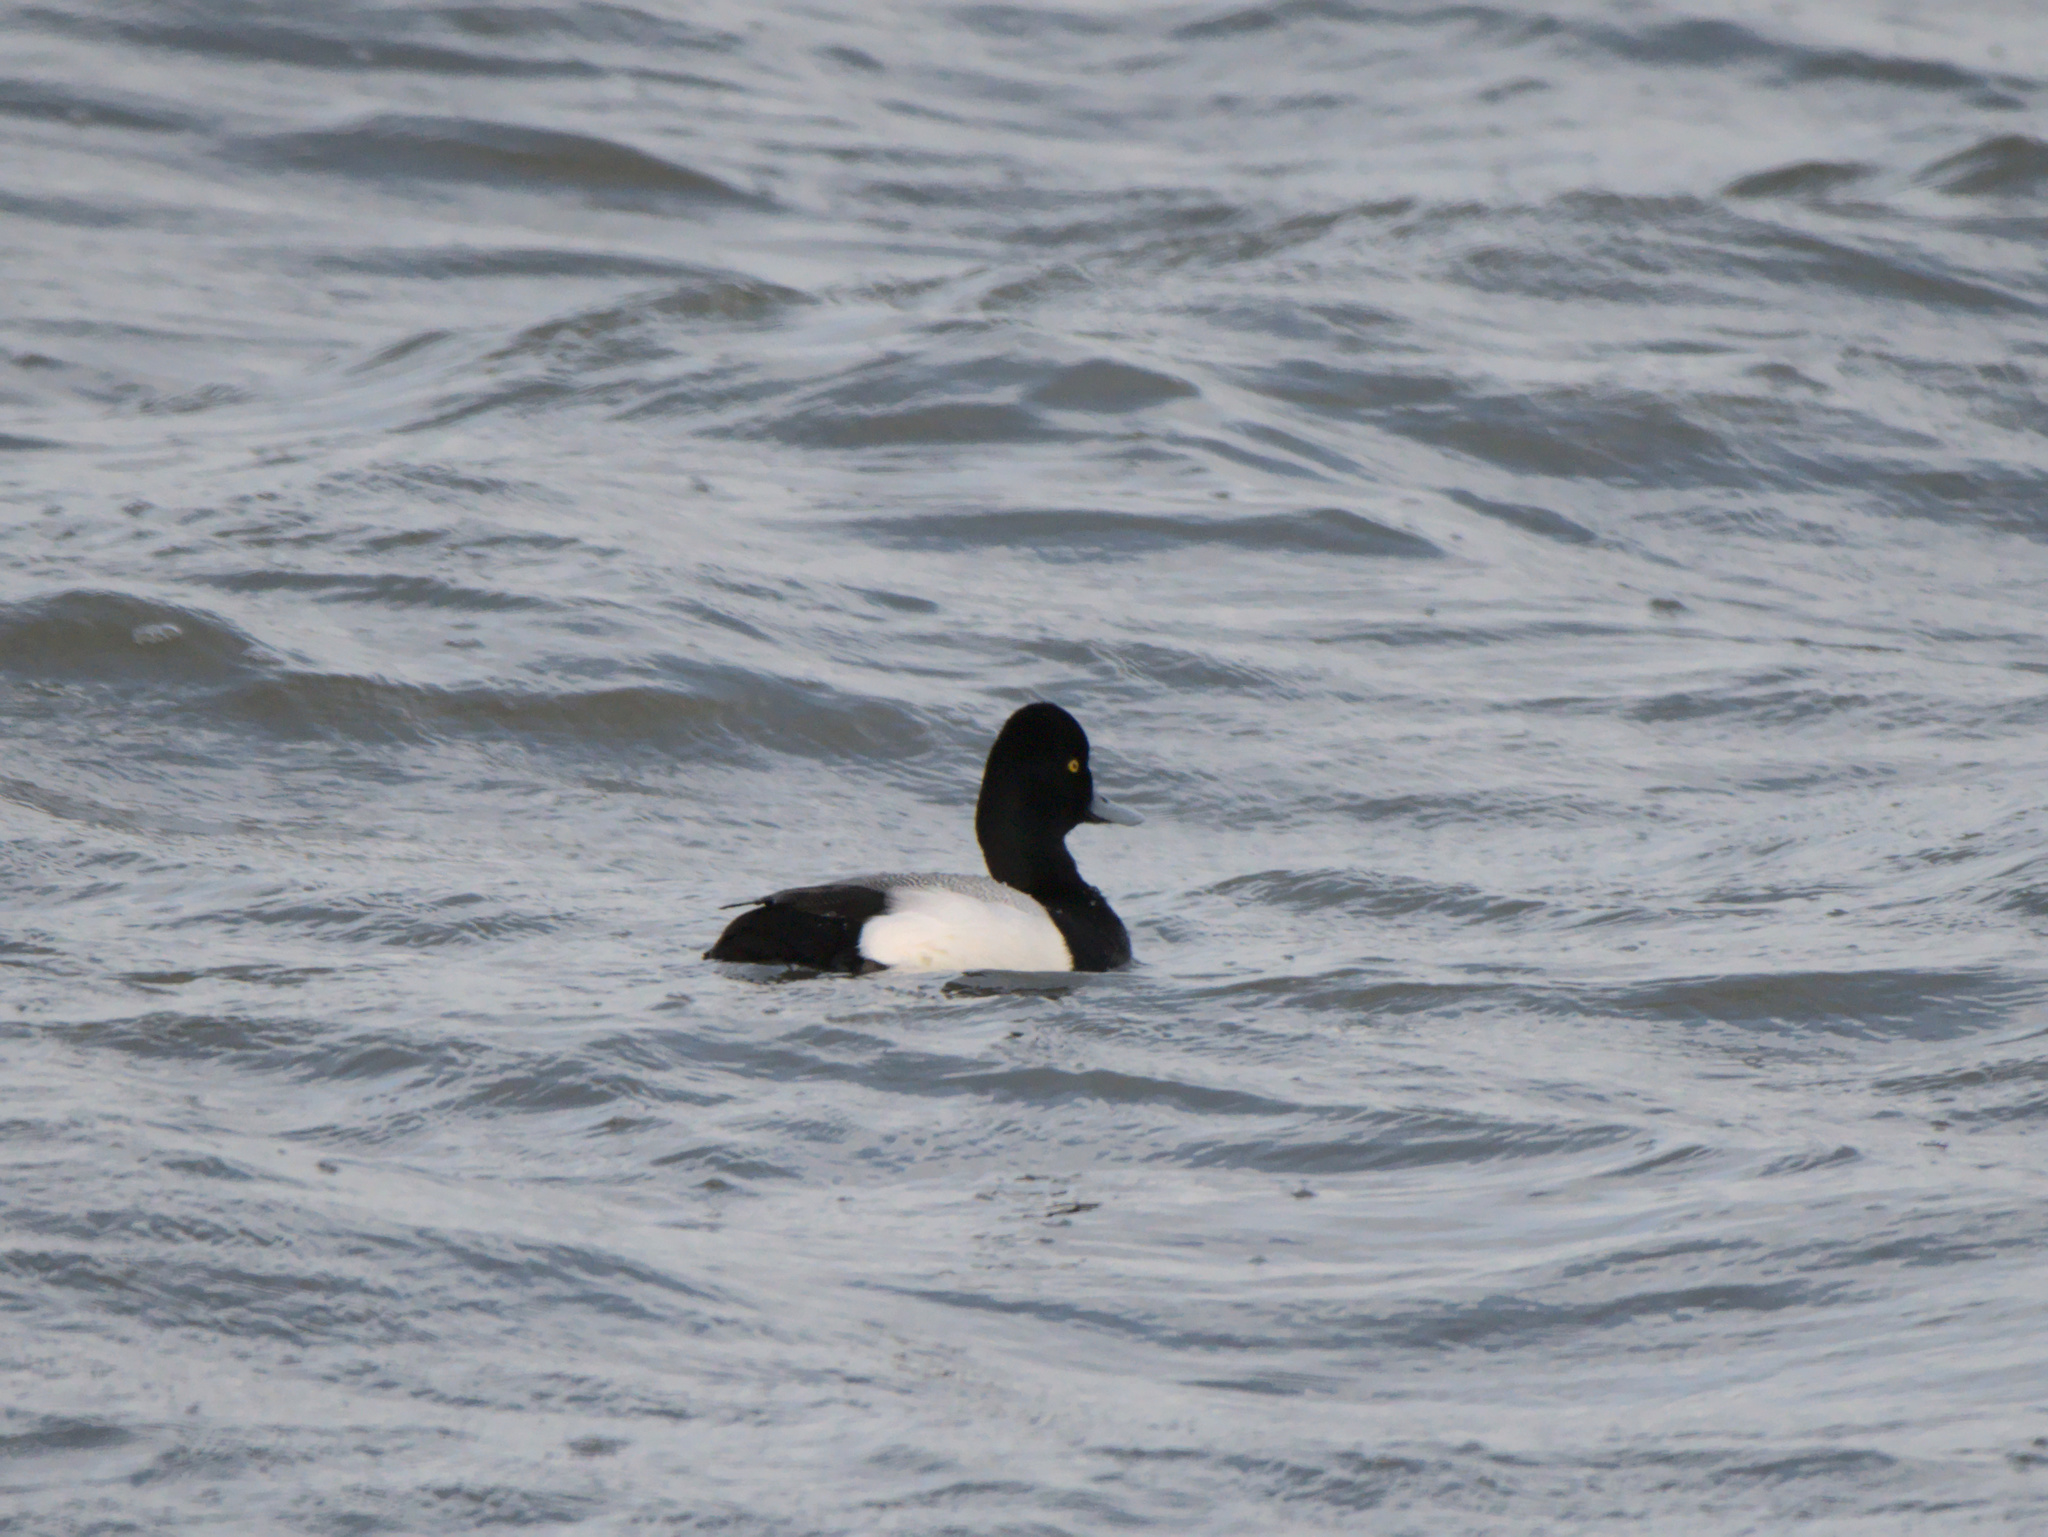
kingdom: Animalia
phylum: Chordata
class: Aves
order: Anseriformes
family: Anatidae
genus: Aythya
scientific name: Aythya affinis
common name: Lesser scaup
